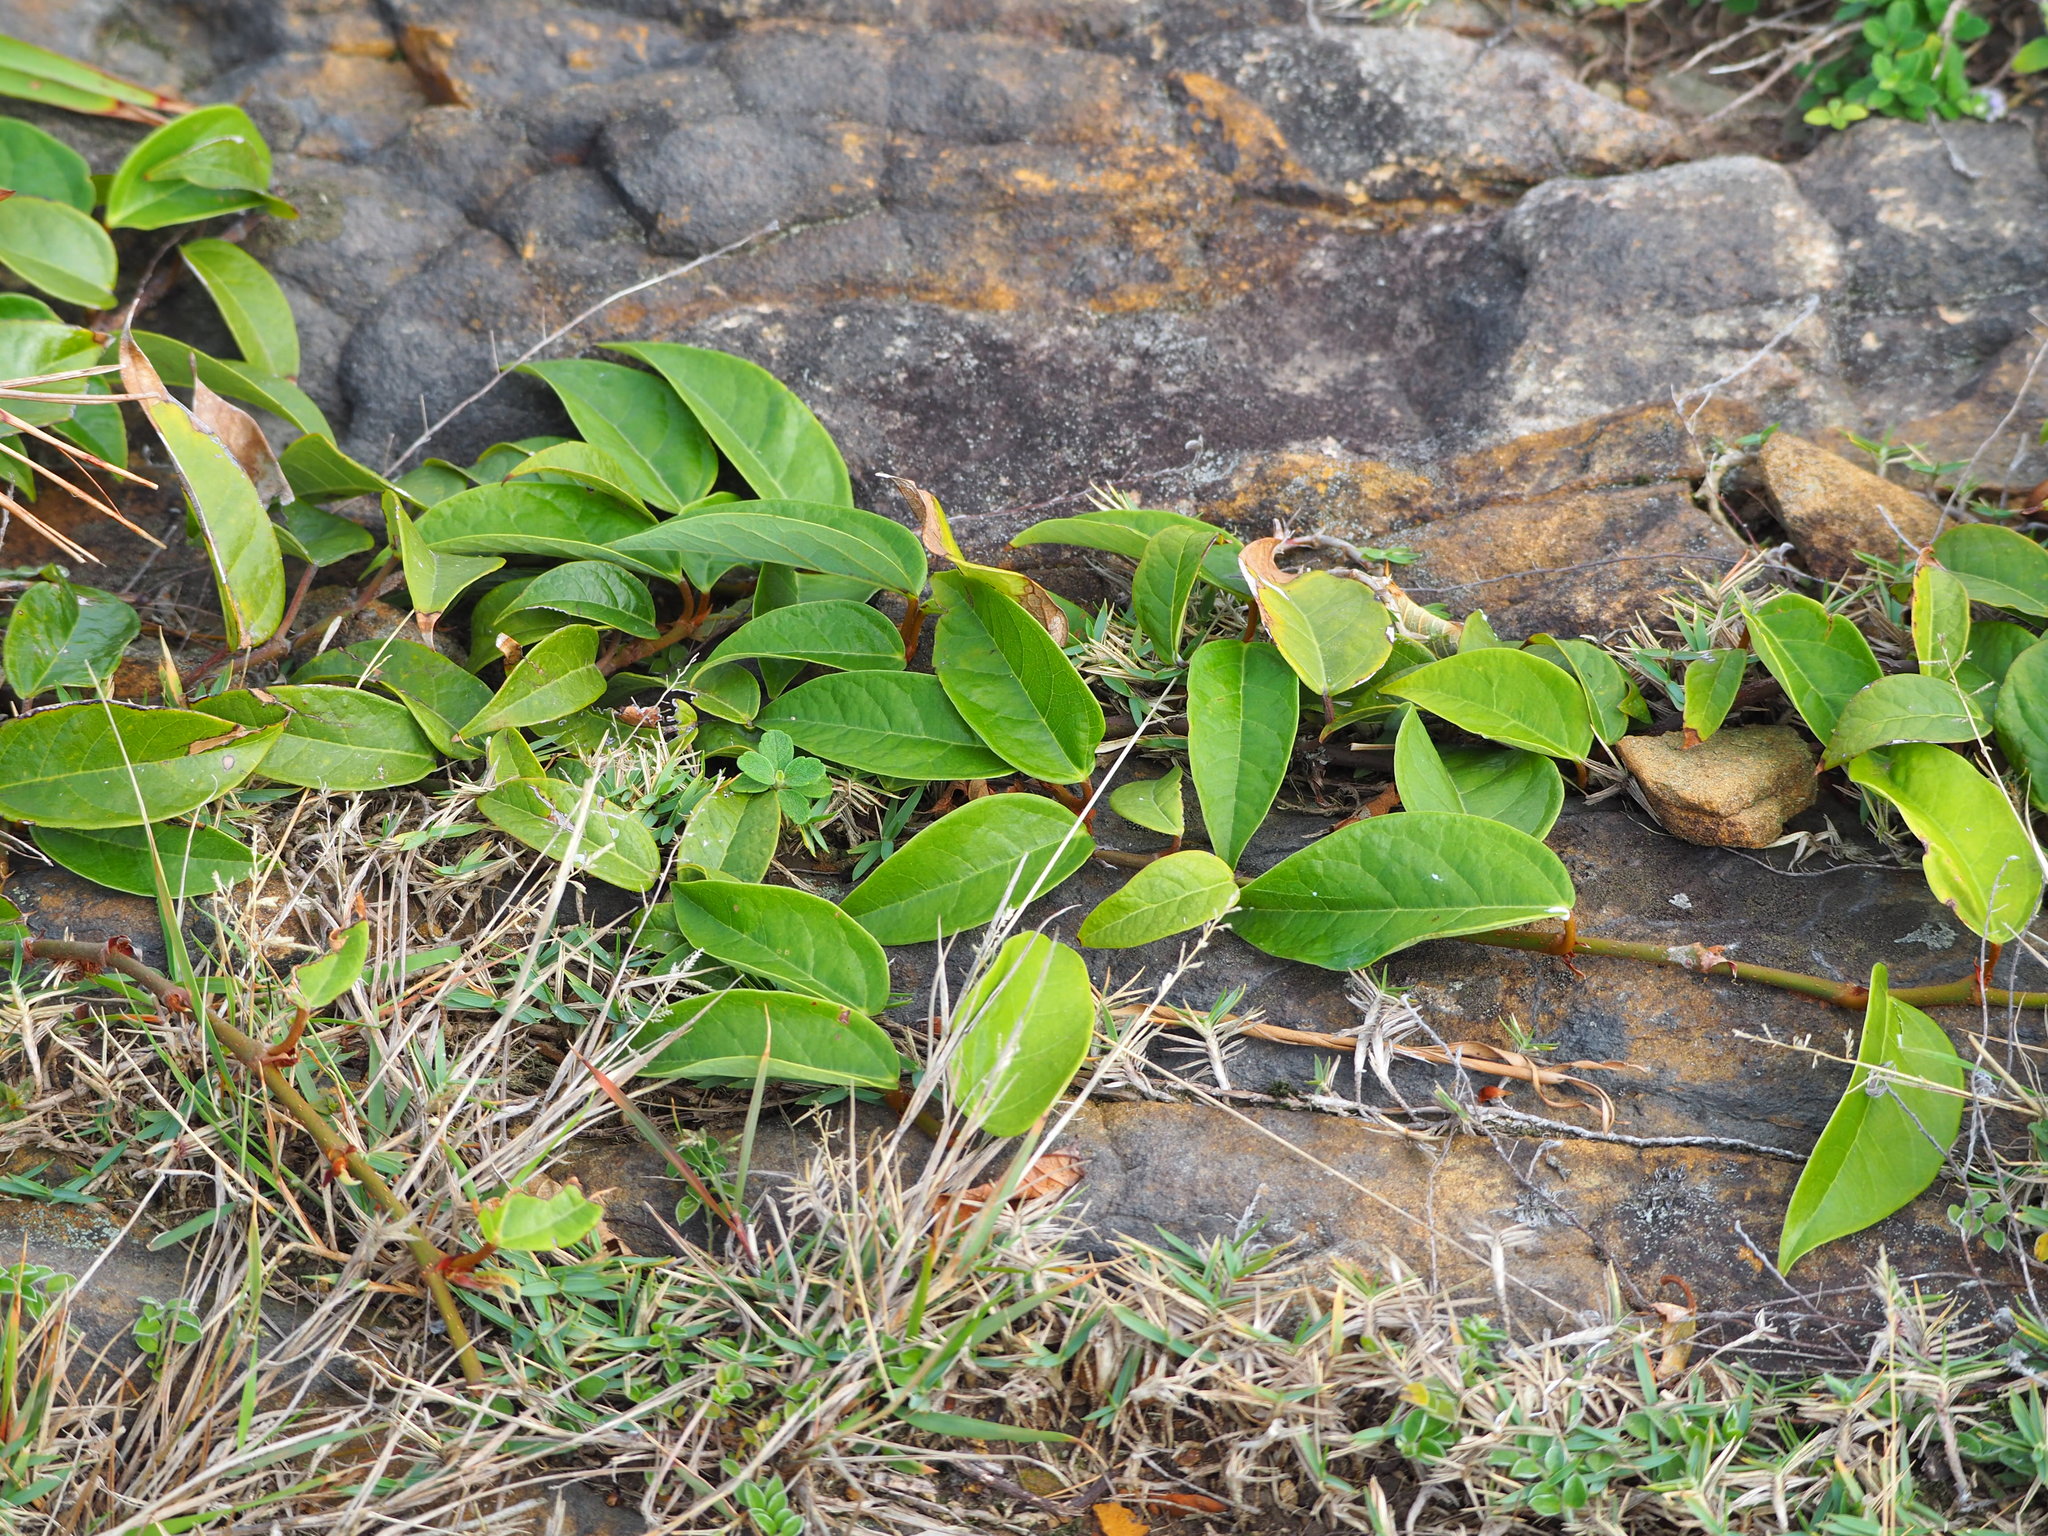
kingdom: Plantae
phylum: Tracheophyta
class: Magnoliopsida
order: Rosales
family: Moraceae
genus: Ficus
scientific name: Ficus sarmentosa
